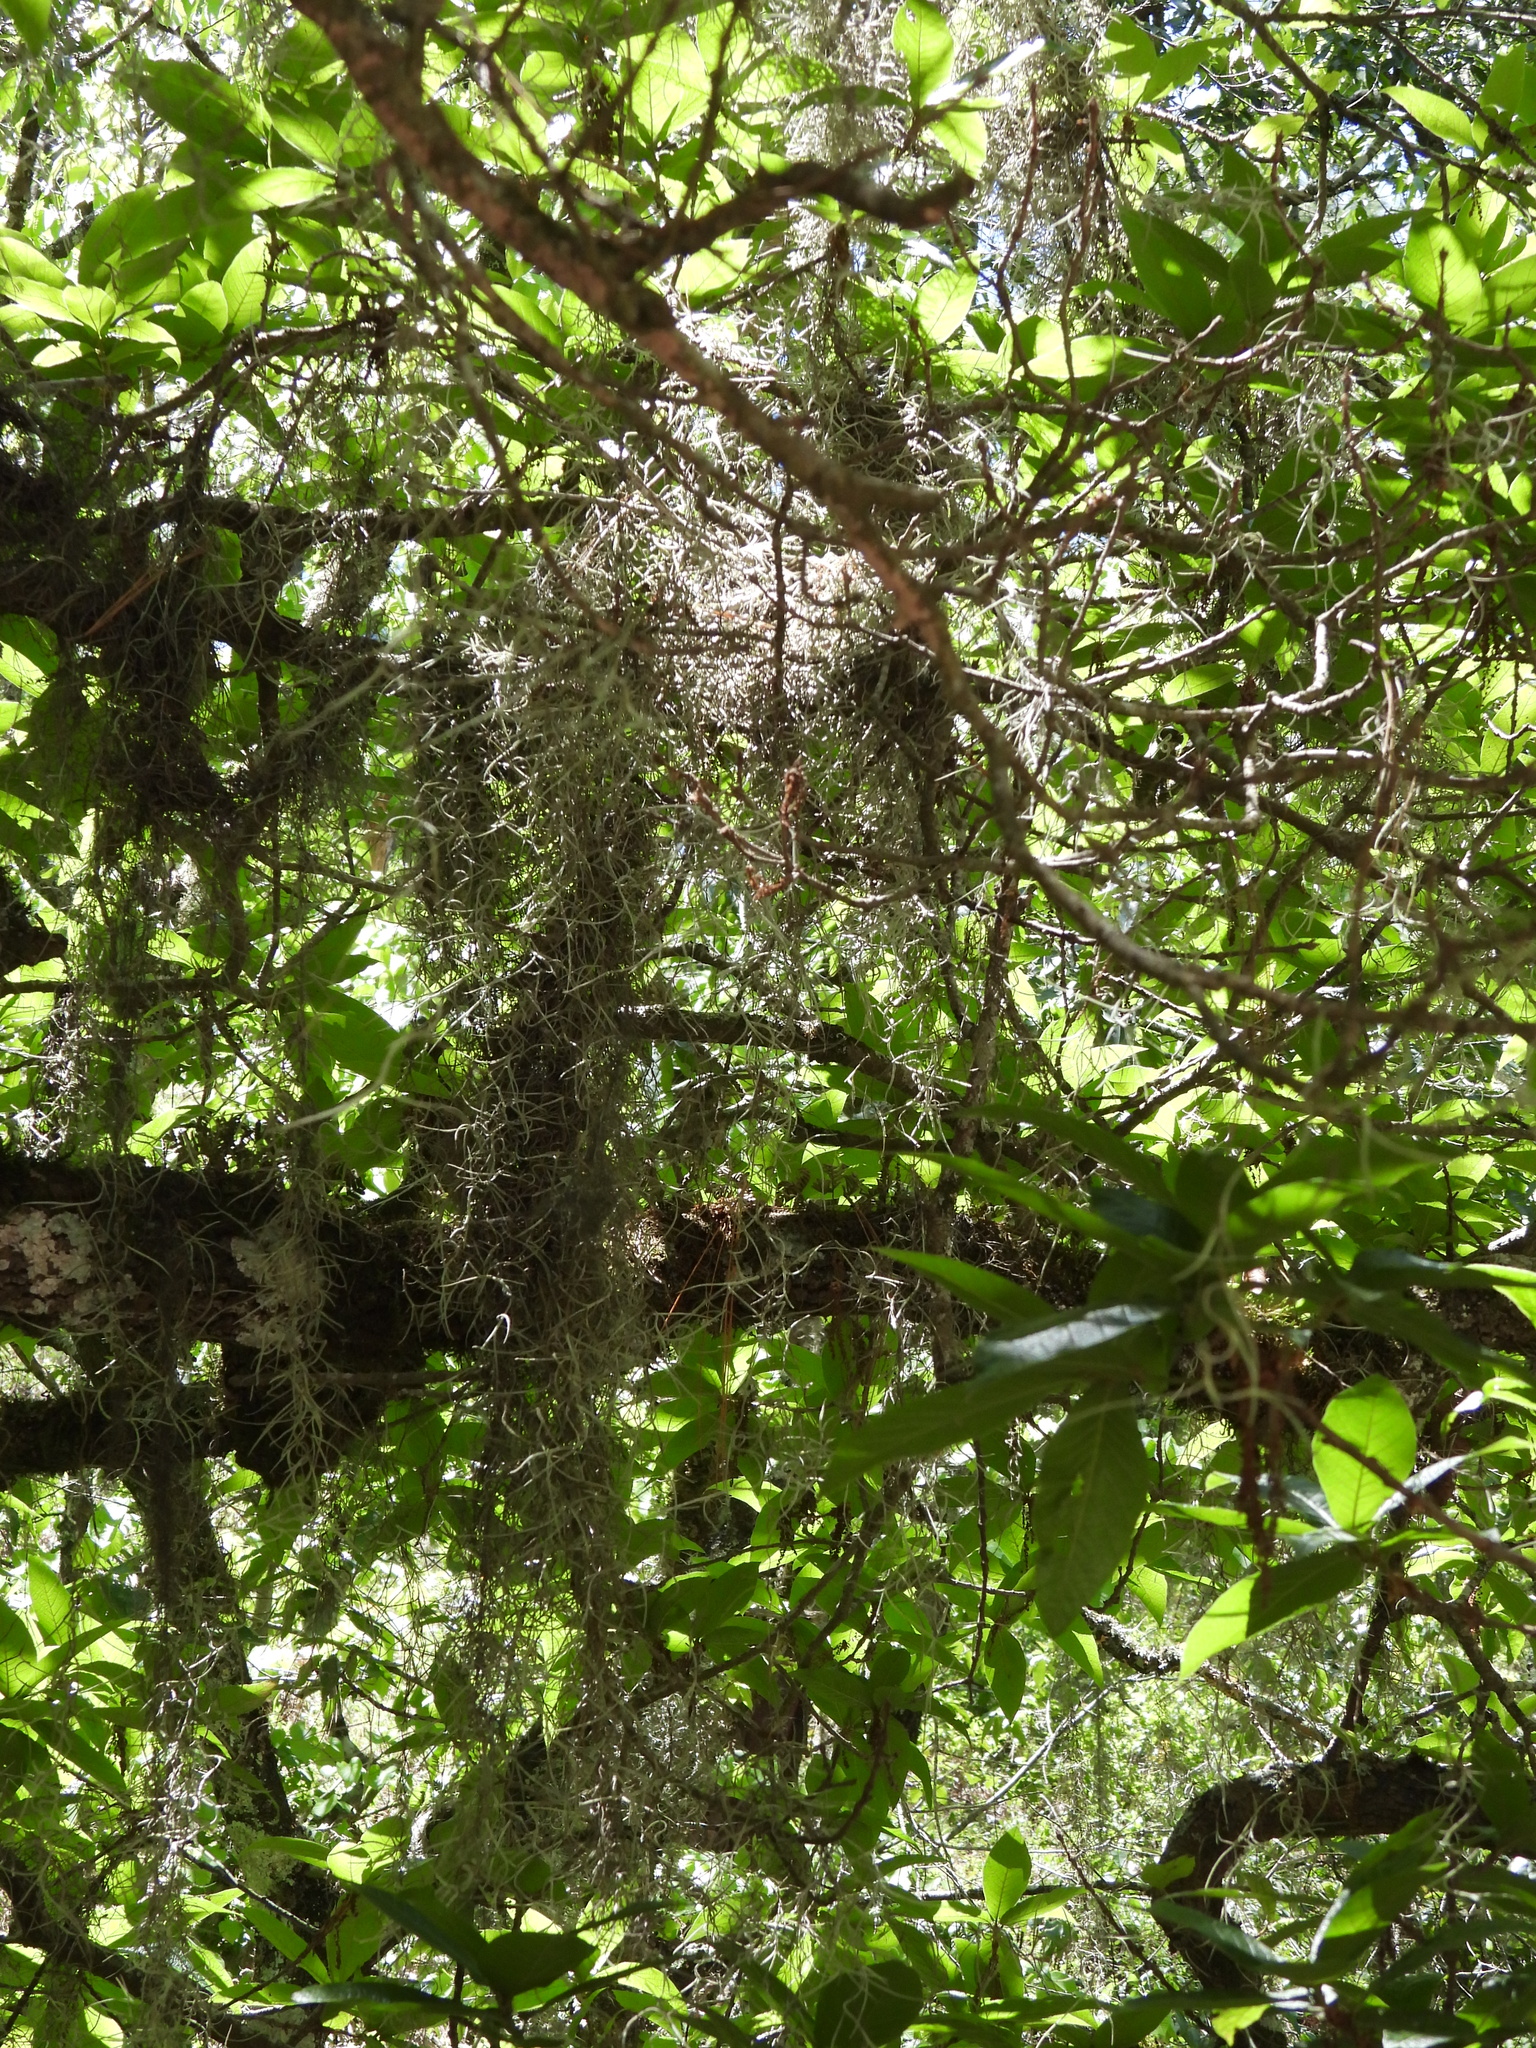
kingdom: Plantae
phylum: Tracheophyta
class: Liliopsida
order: Poales
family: Bromeliaceae
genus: Tillandsia
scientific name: Tillandsia usneoides
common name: Spanish moss
